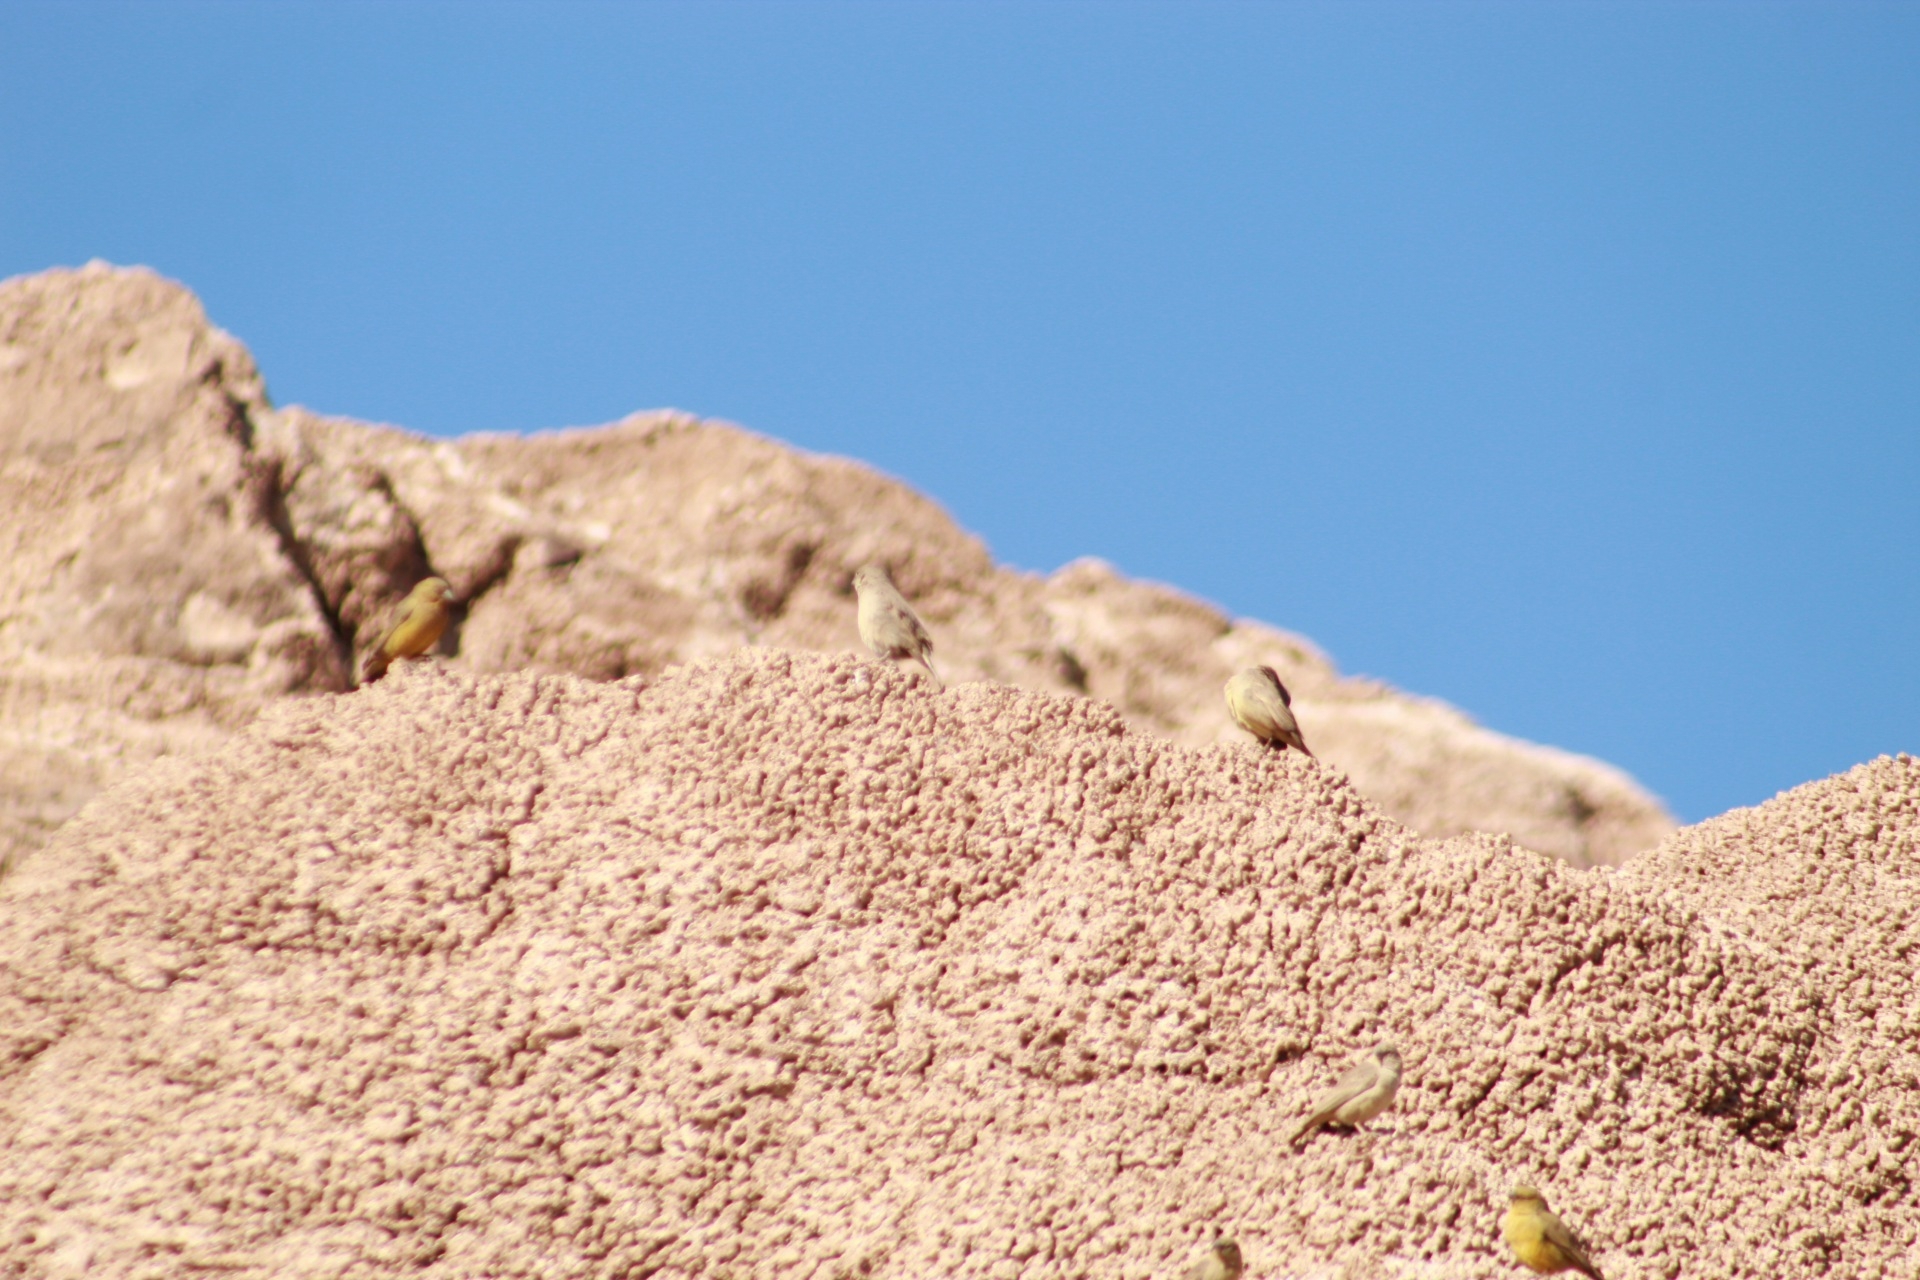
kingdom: Animalia
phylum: Chordata
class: Aves
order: Passeriformes
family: Thraupidae
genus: Sicalis
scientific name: Sicalis olivascens
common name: Greenish yellow finch
